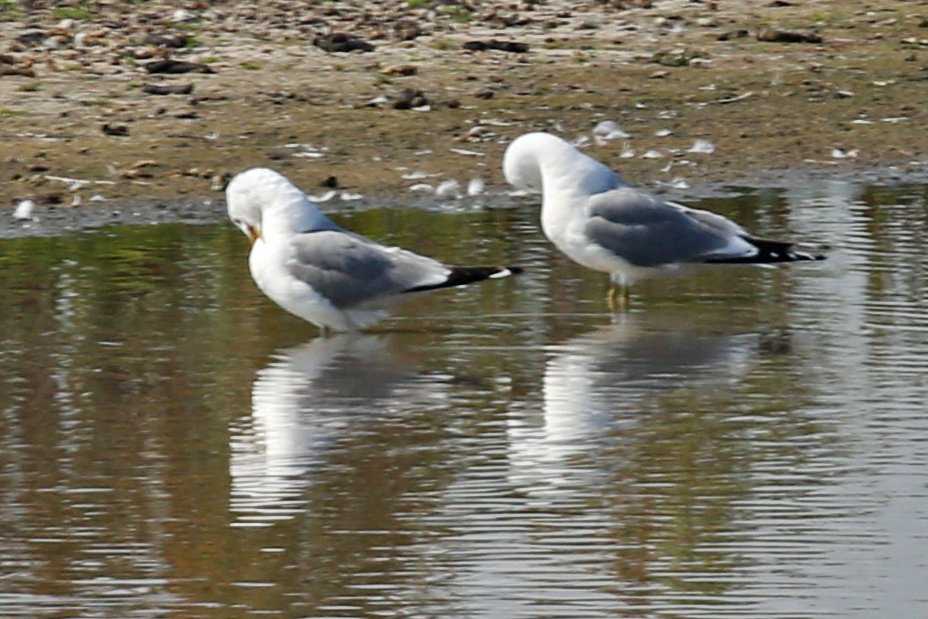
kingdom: Animalia
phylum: Chordata
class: Aves
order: Charadriiformes
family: Laridae
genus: Larus
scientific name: Larus canus
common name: Mew gull
